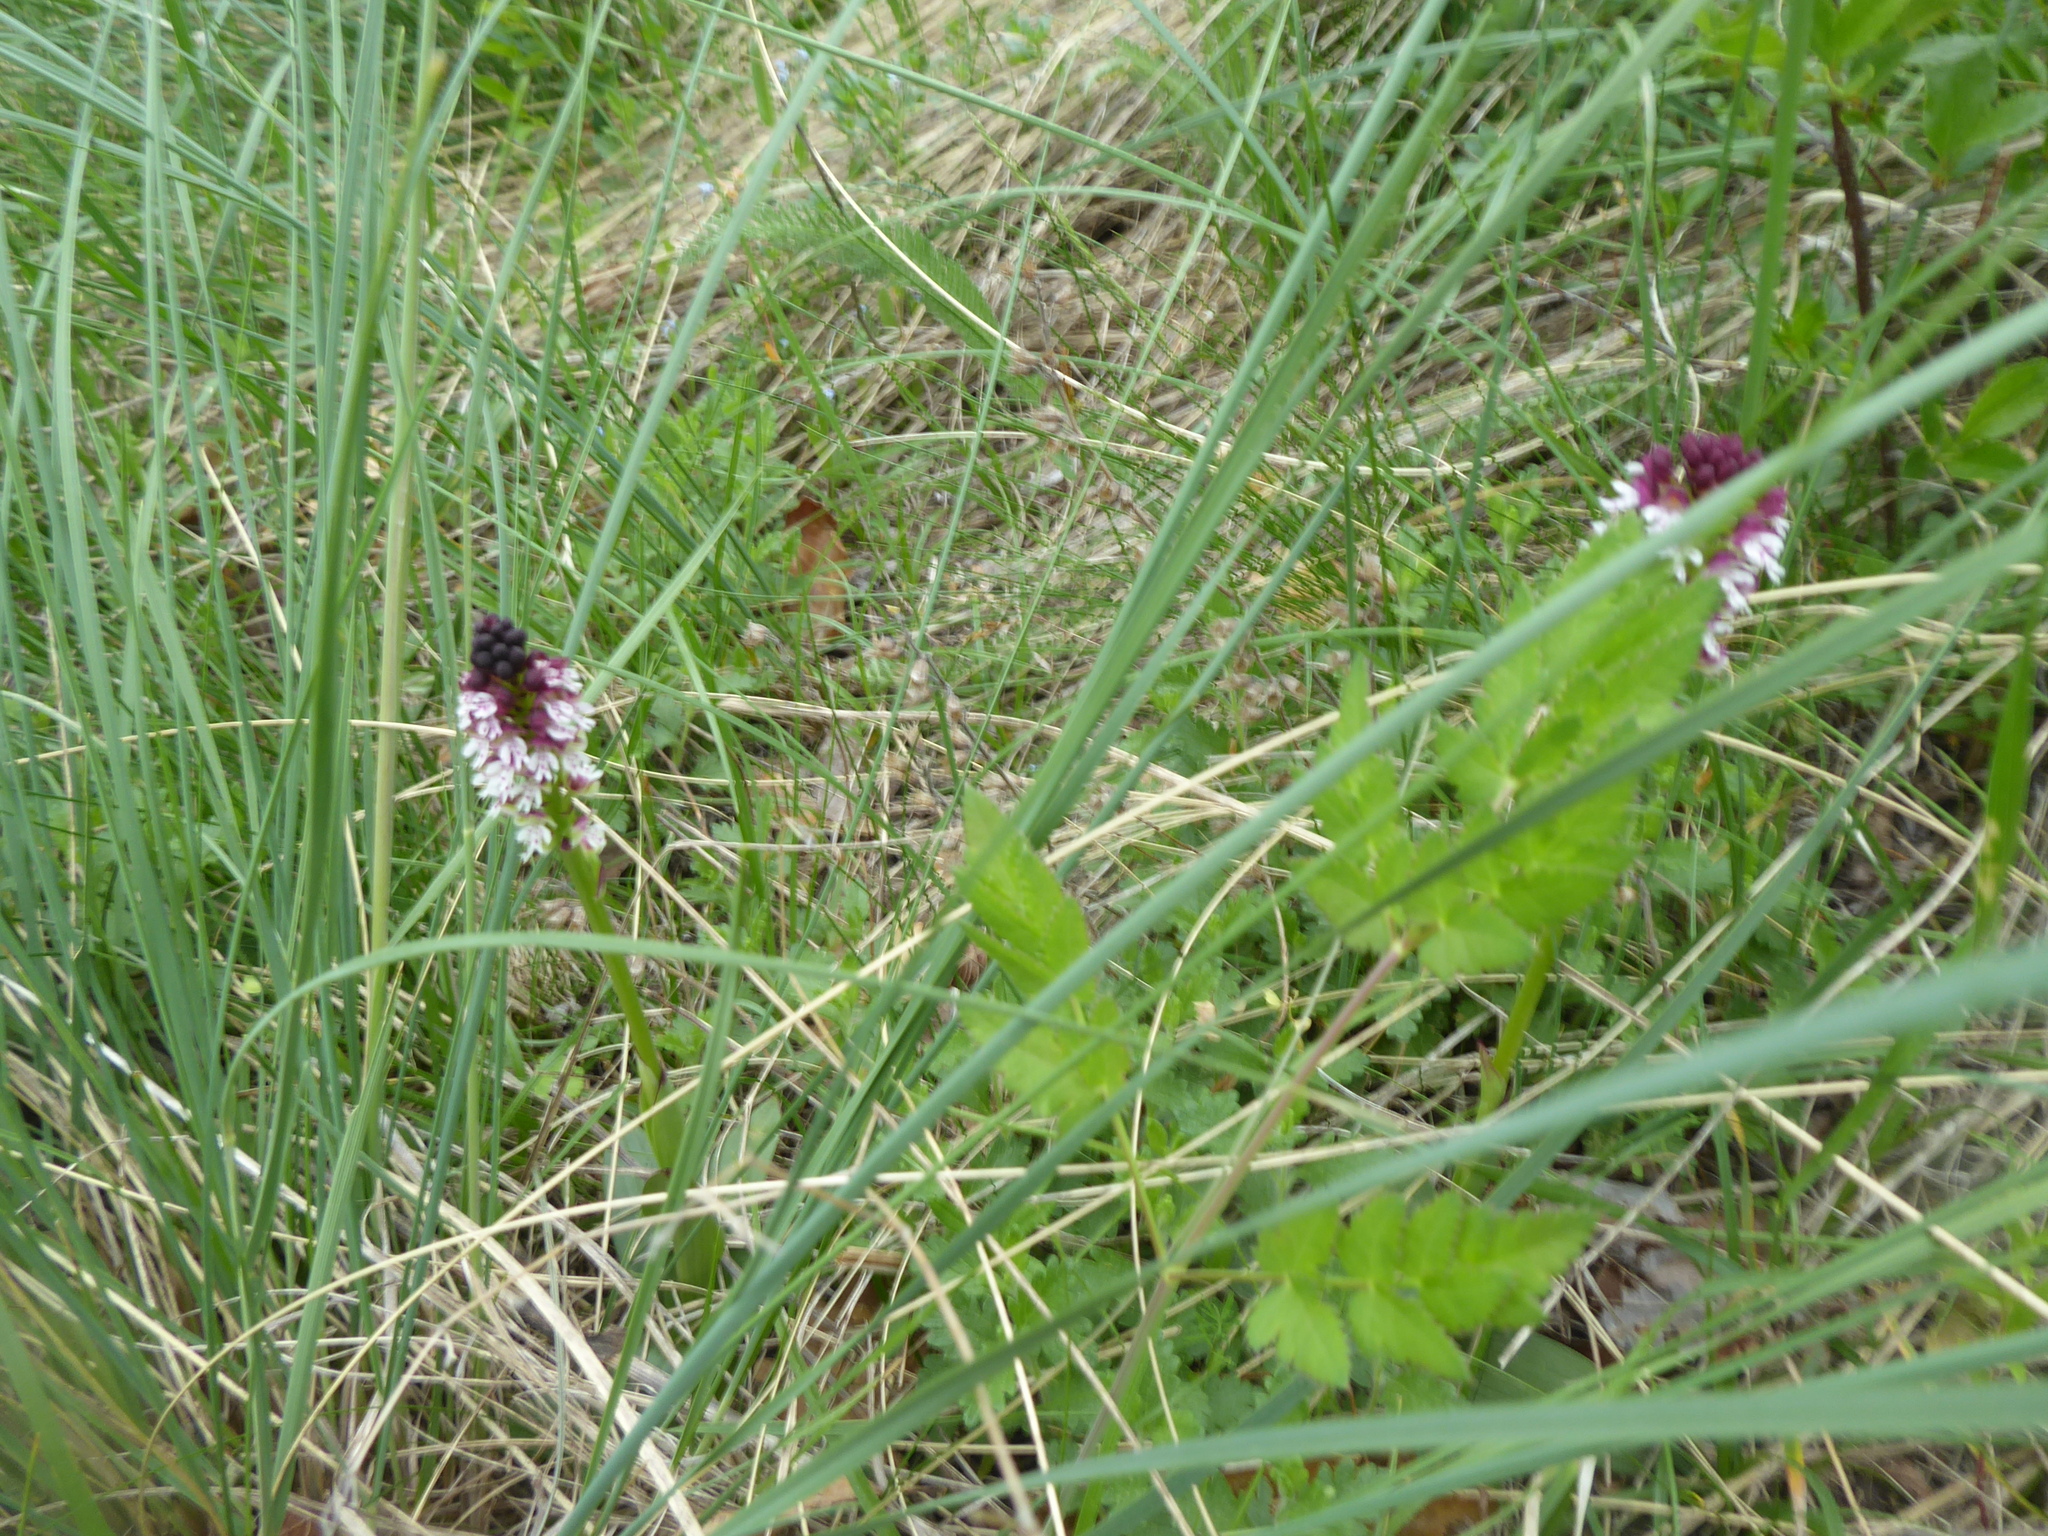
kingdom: Plantae
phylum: Tracheophyta
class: Liliopsida
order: Asparagales
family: Orchidaceae
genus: Neotinea
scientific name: Neotinea ustulata
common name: Burnt orchid
